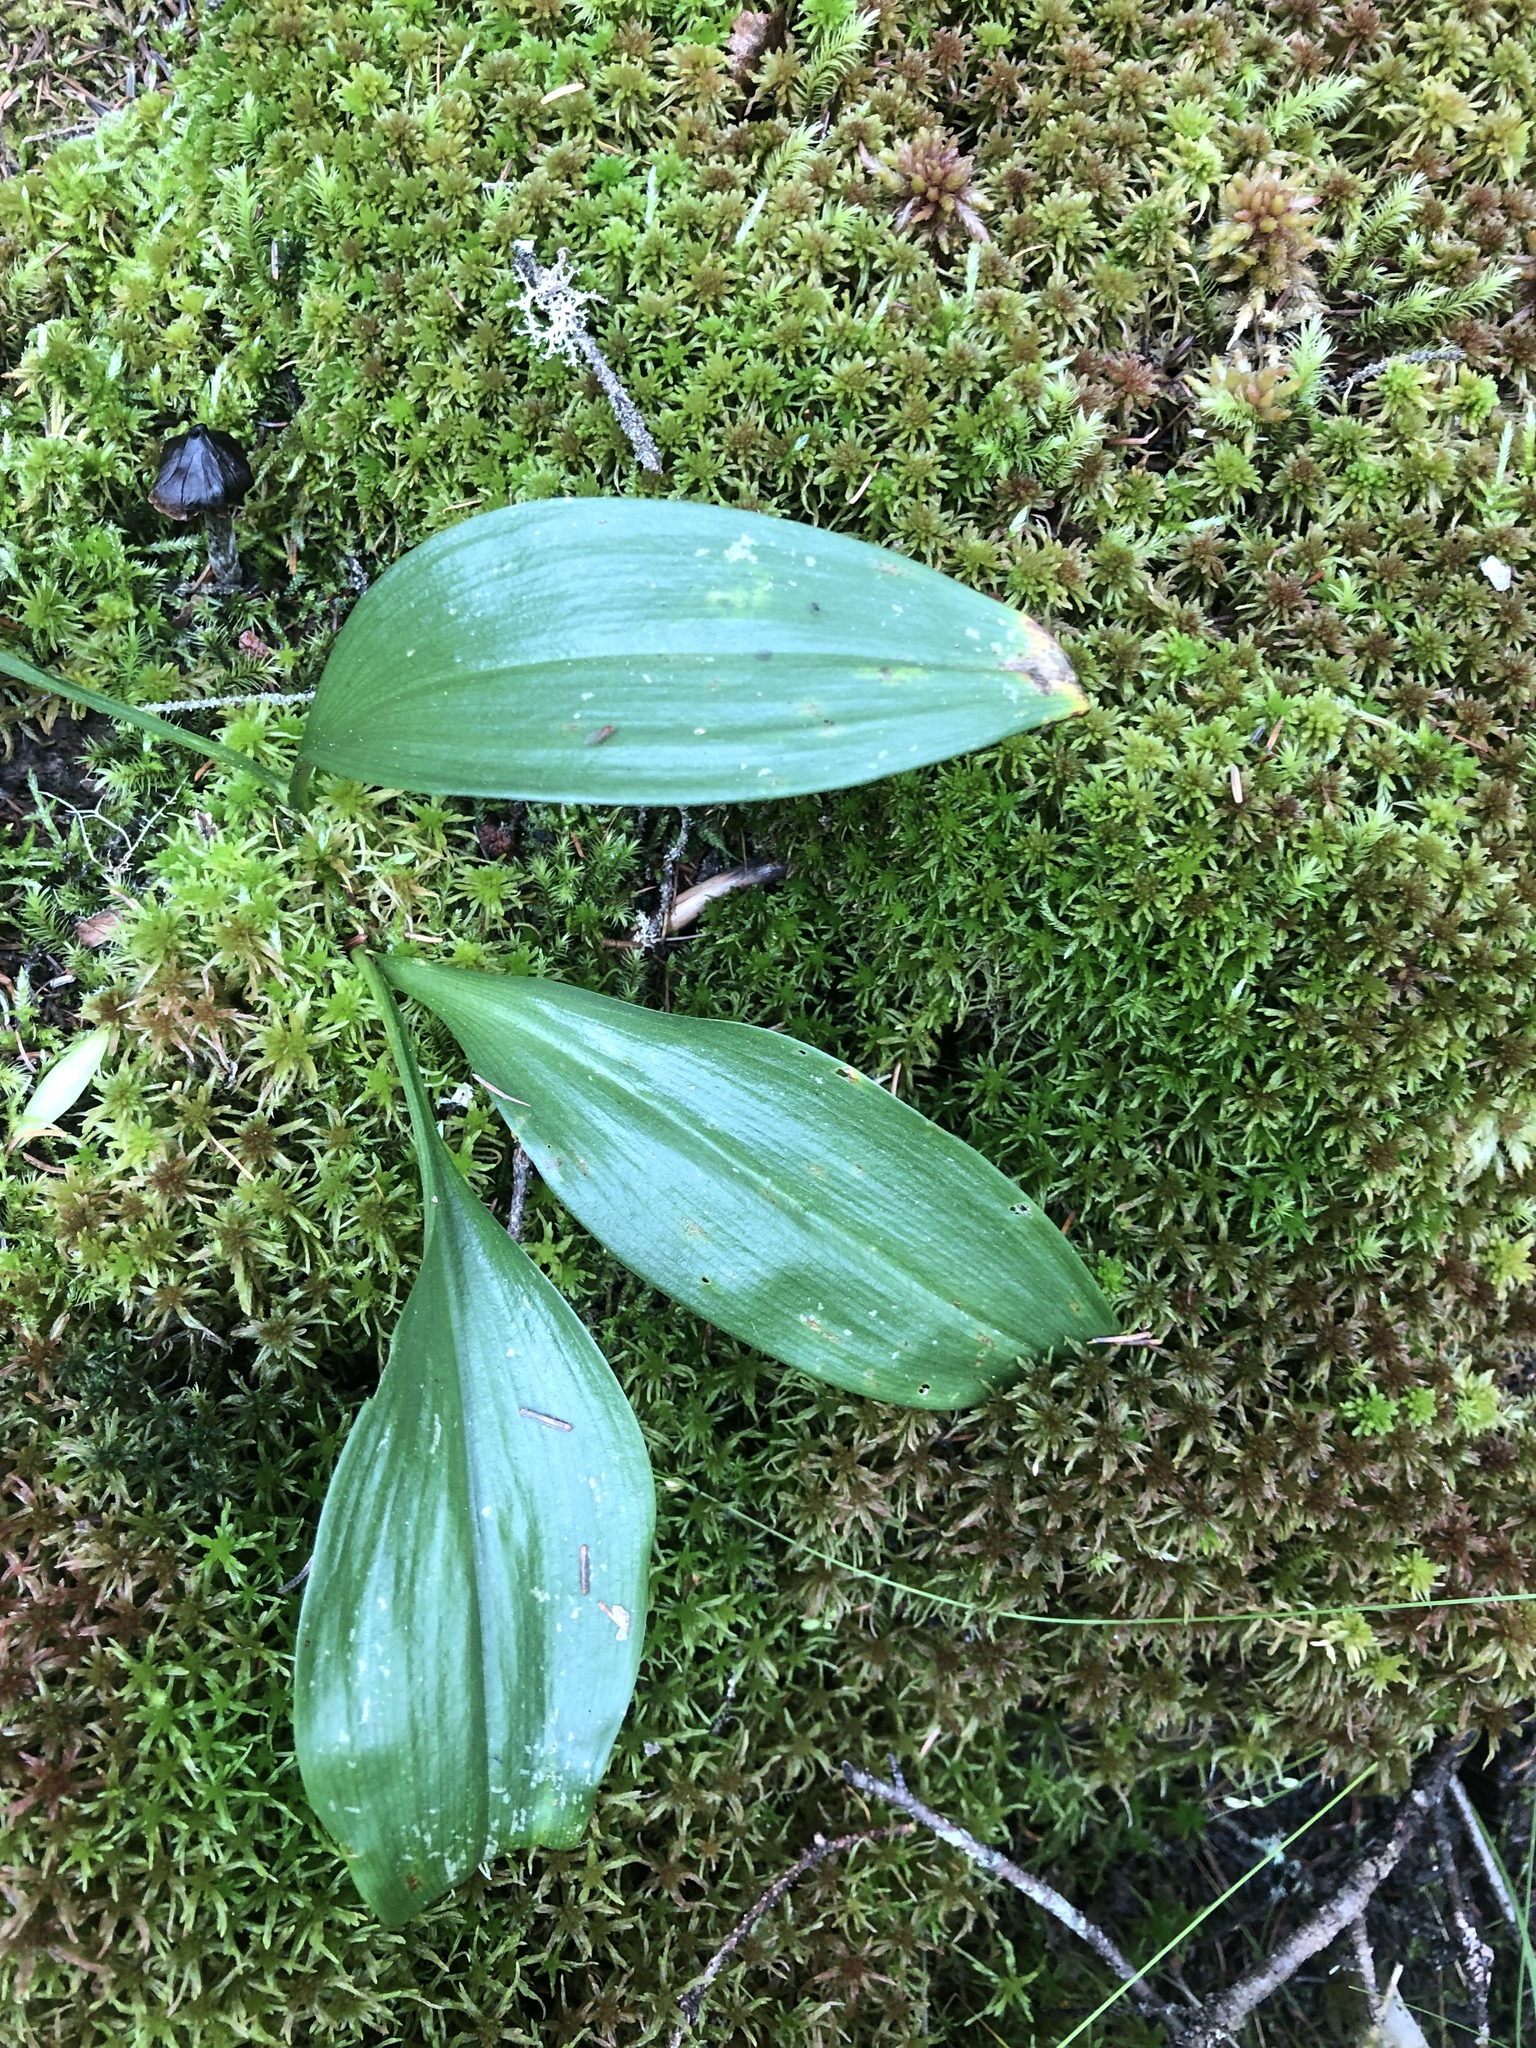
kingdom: Plantae
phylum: Tracheophyta
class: Liliopsida
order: Asparagales
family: Asparagaceae
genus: Maianthemum
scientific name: Maianthemum trifolium
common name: Swamp false solomon's seal
